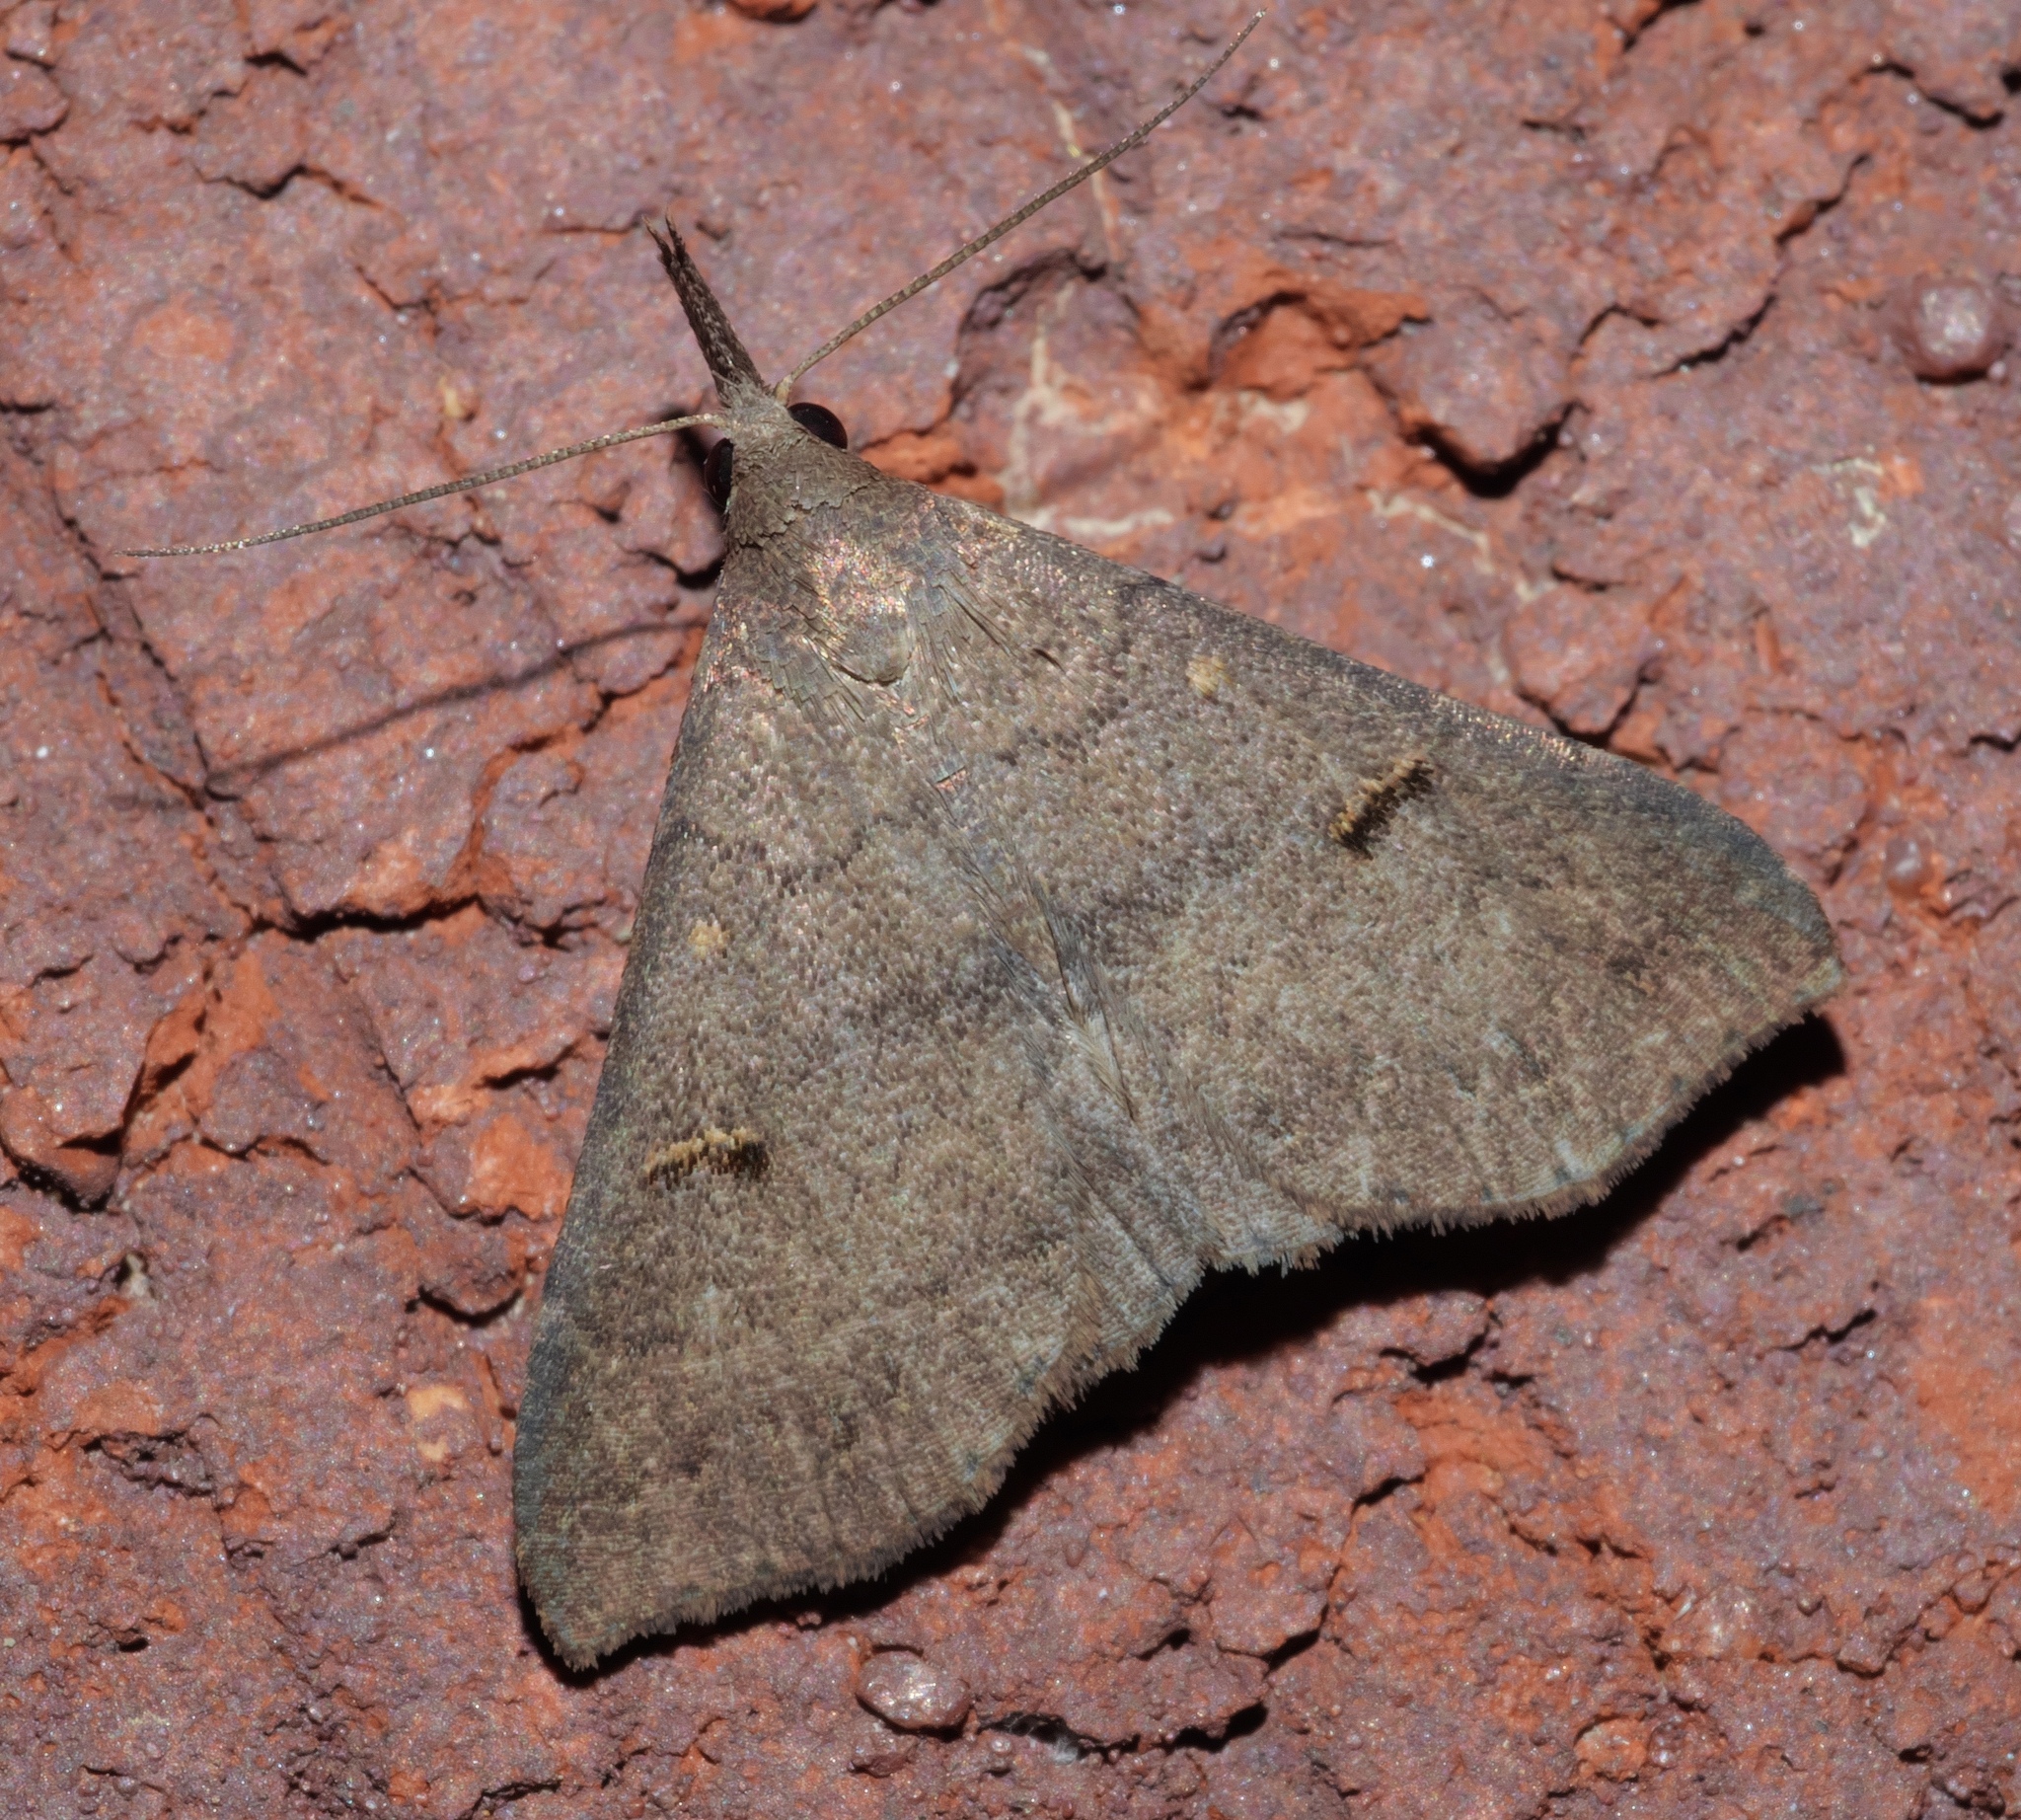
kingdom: Animalia
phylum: Arthropoda
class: Insecta
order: Lepidoptera
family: Erebidae
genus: Bleptina
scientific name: Bleptina caradrinalis
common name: Bent-winged owlet
